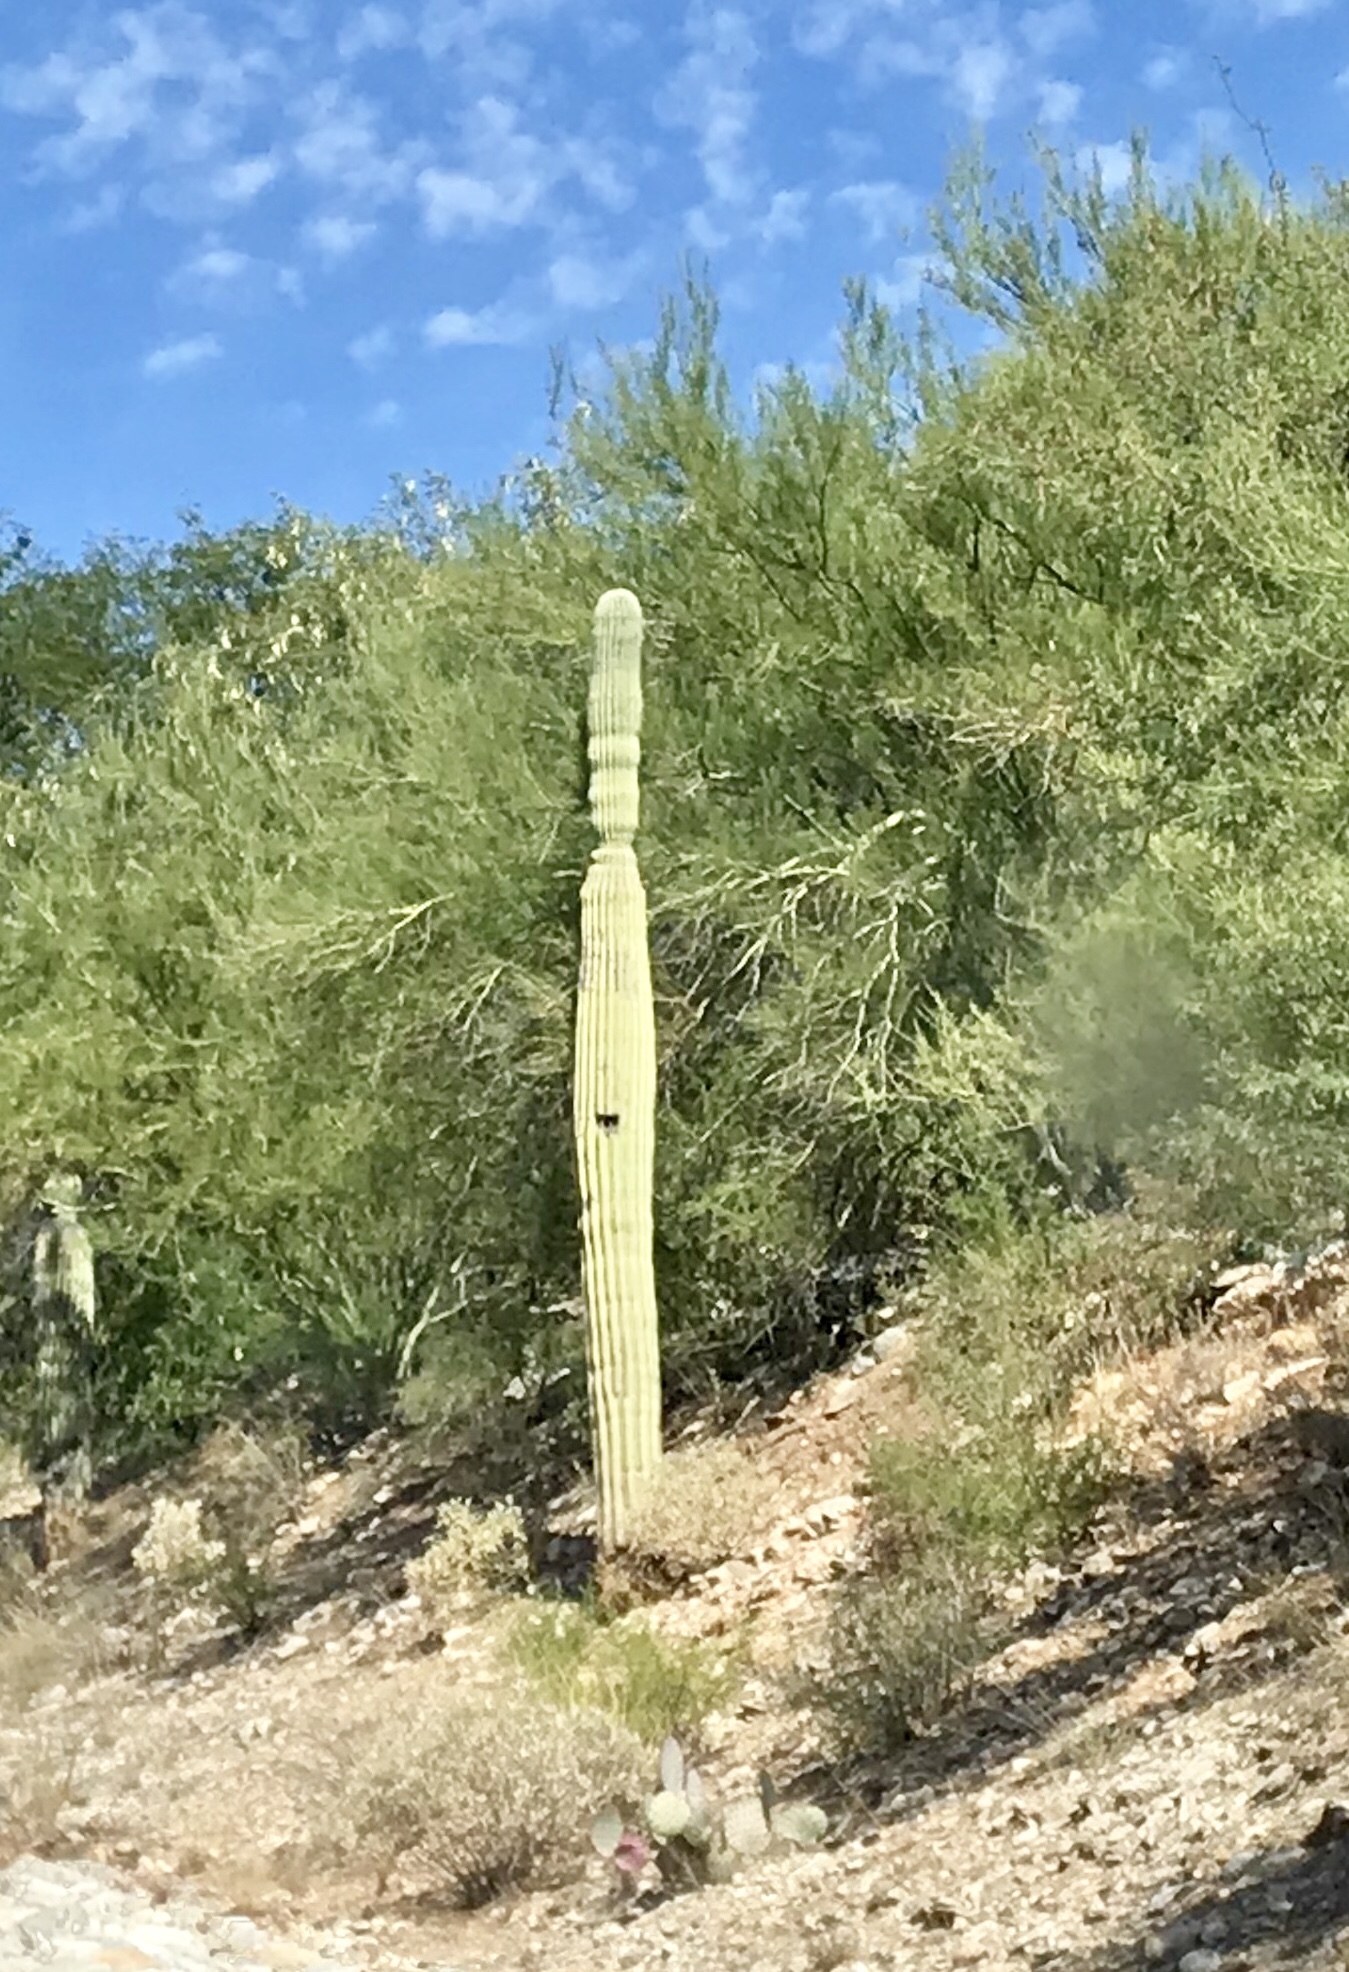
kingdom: Plantae
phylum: Tracheophyta
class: Magnoliopsida
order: Caryophyllales
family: Cactaceae
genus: Carnegiea
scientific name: Carnegiea gigantea
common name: Saguaro
